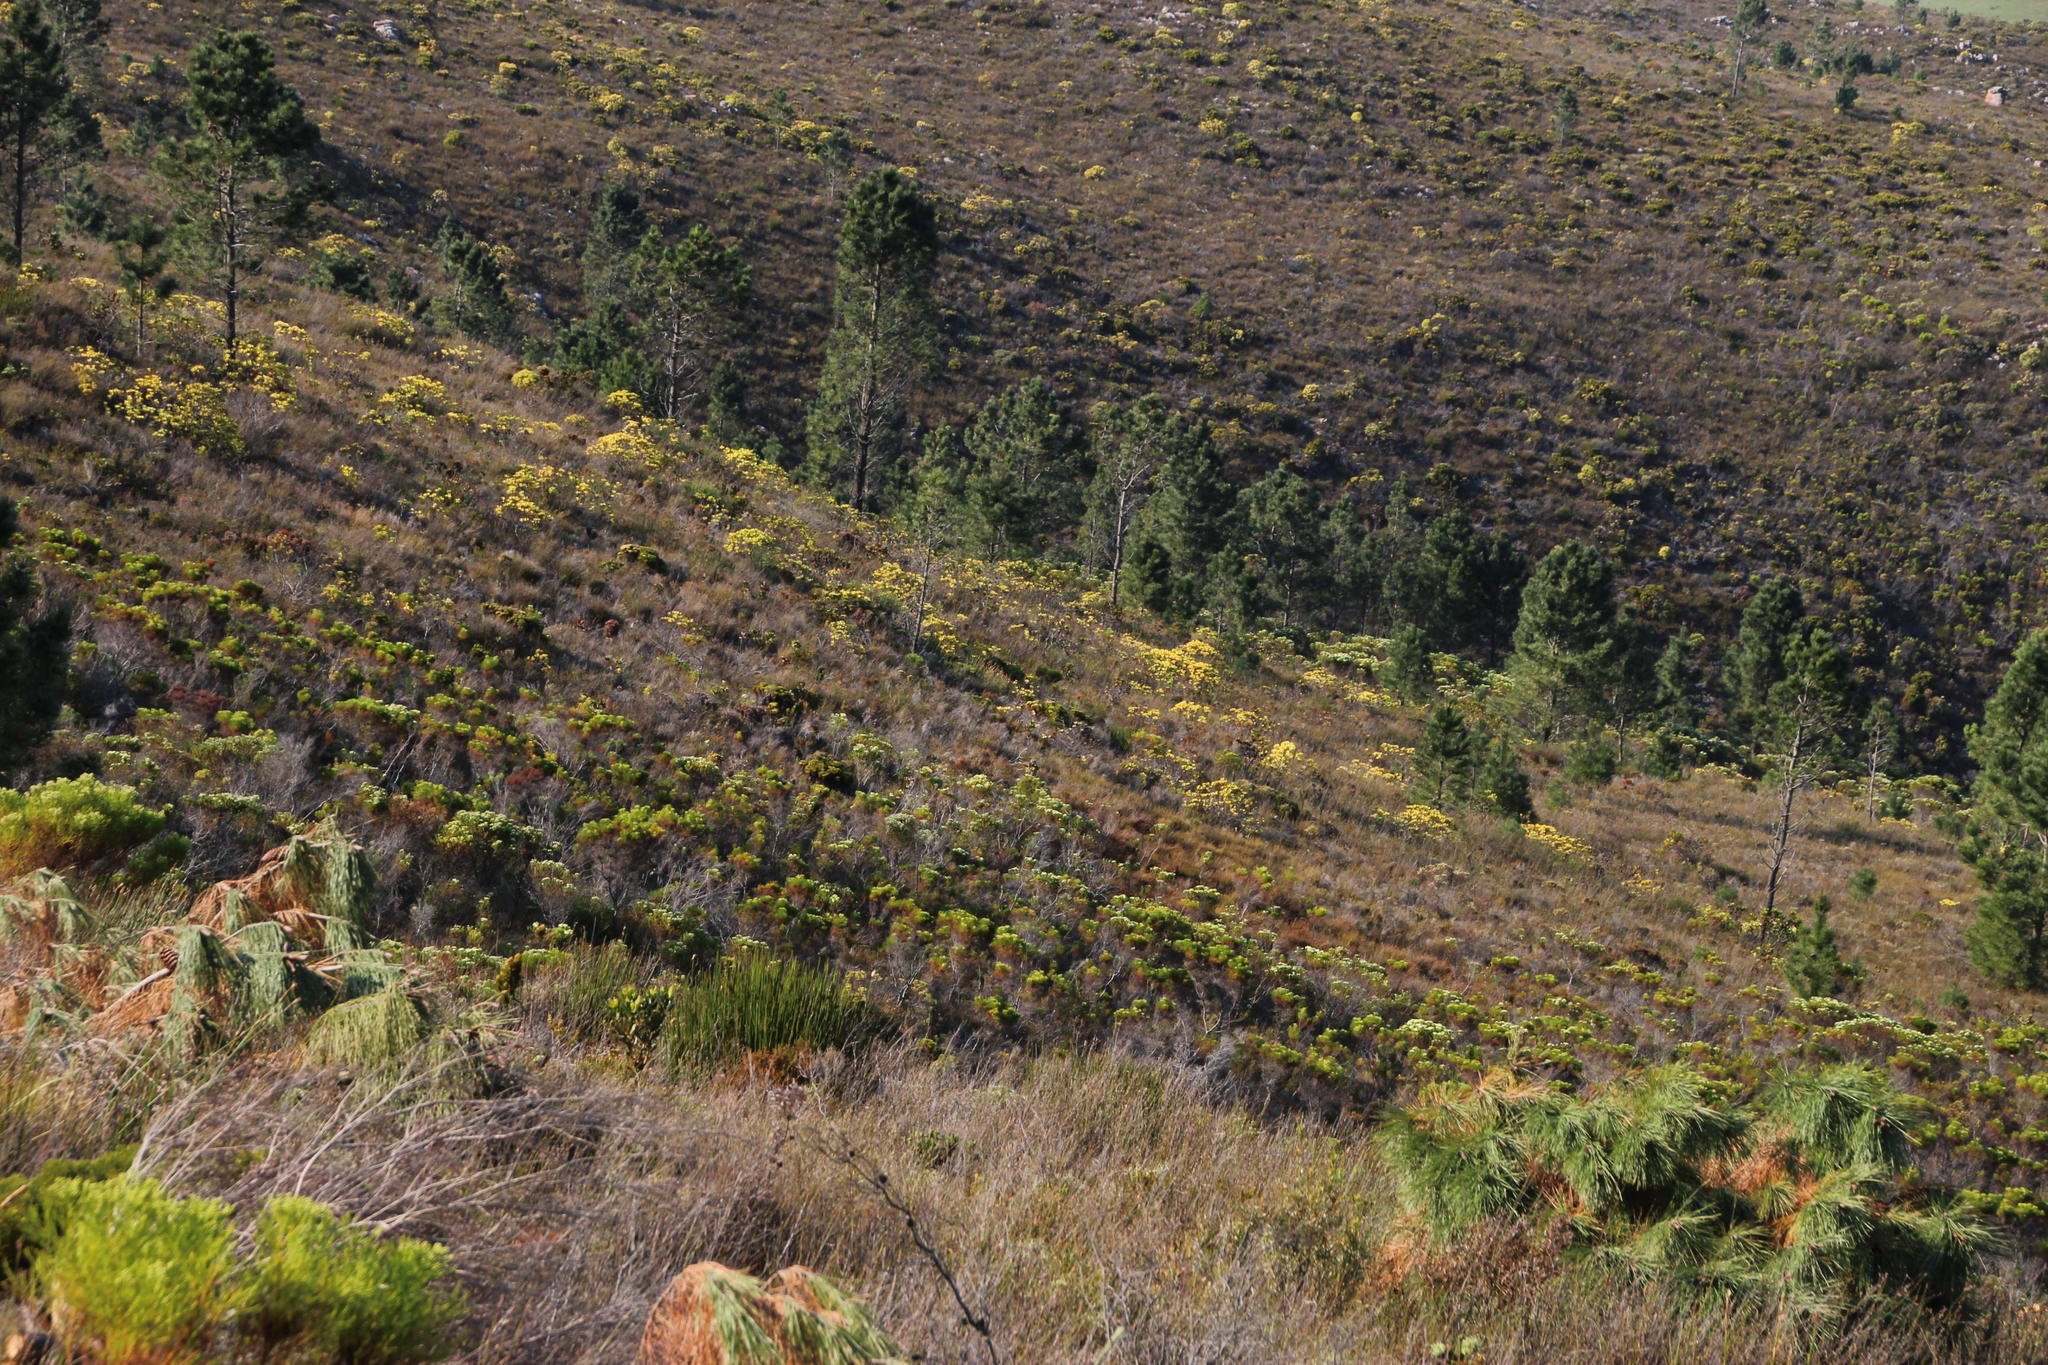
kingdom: Plantae
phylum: Tracheophyta
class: Pinopsida
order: Pinales
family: Pinaceae
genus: Pinus
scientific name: Pinus pinaster
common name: Maritime pine
